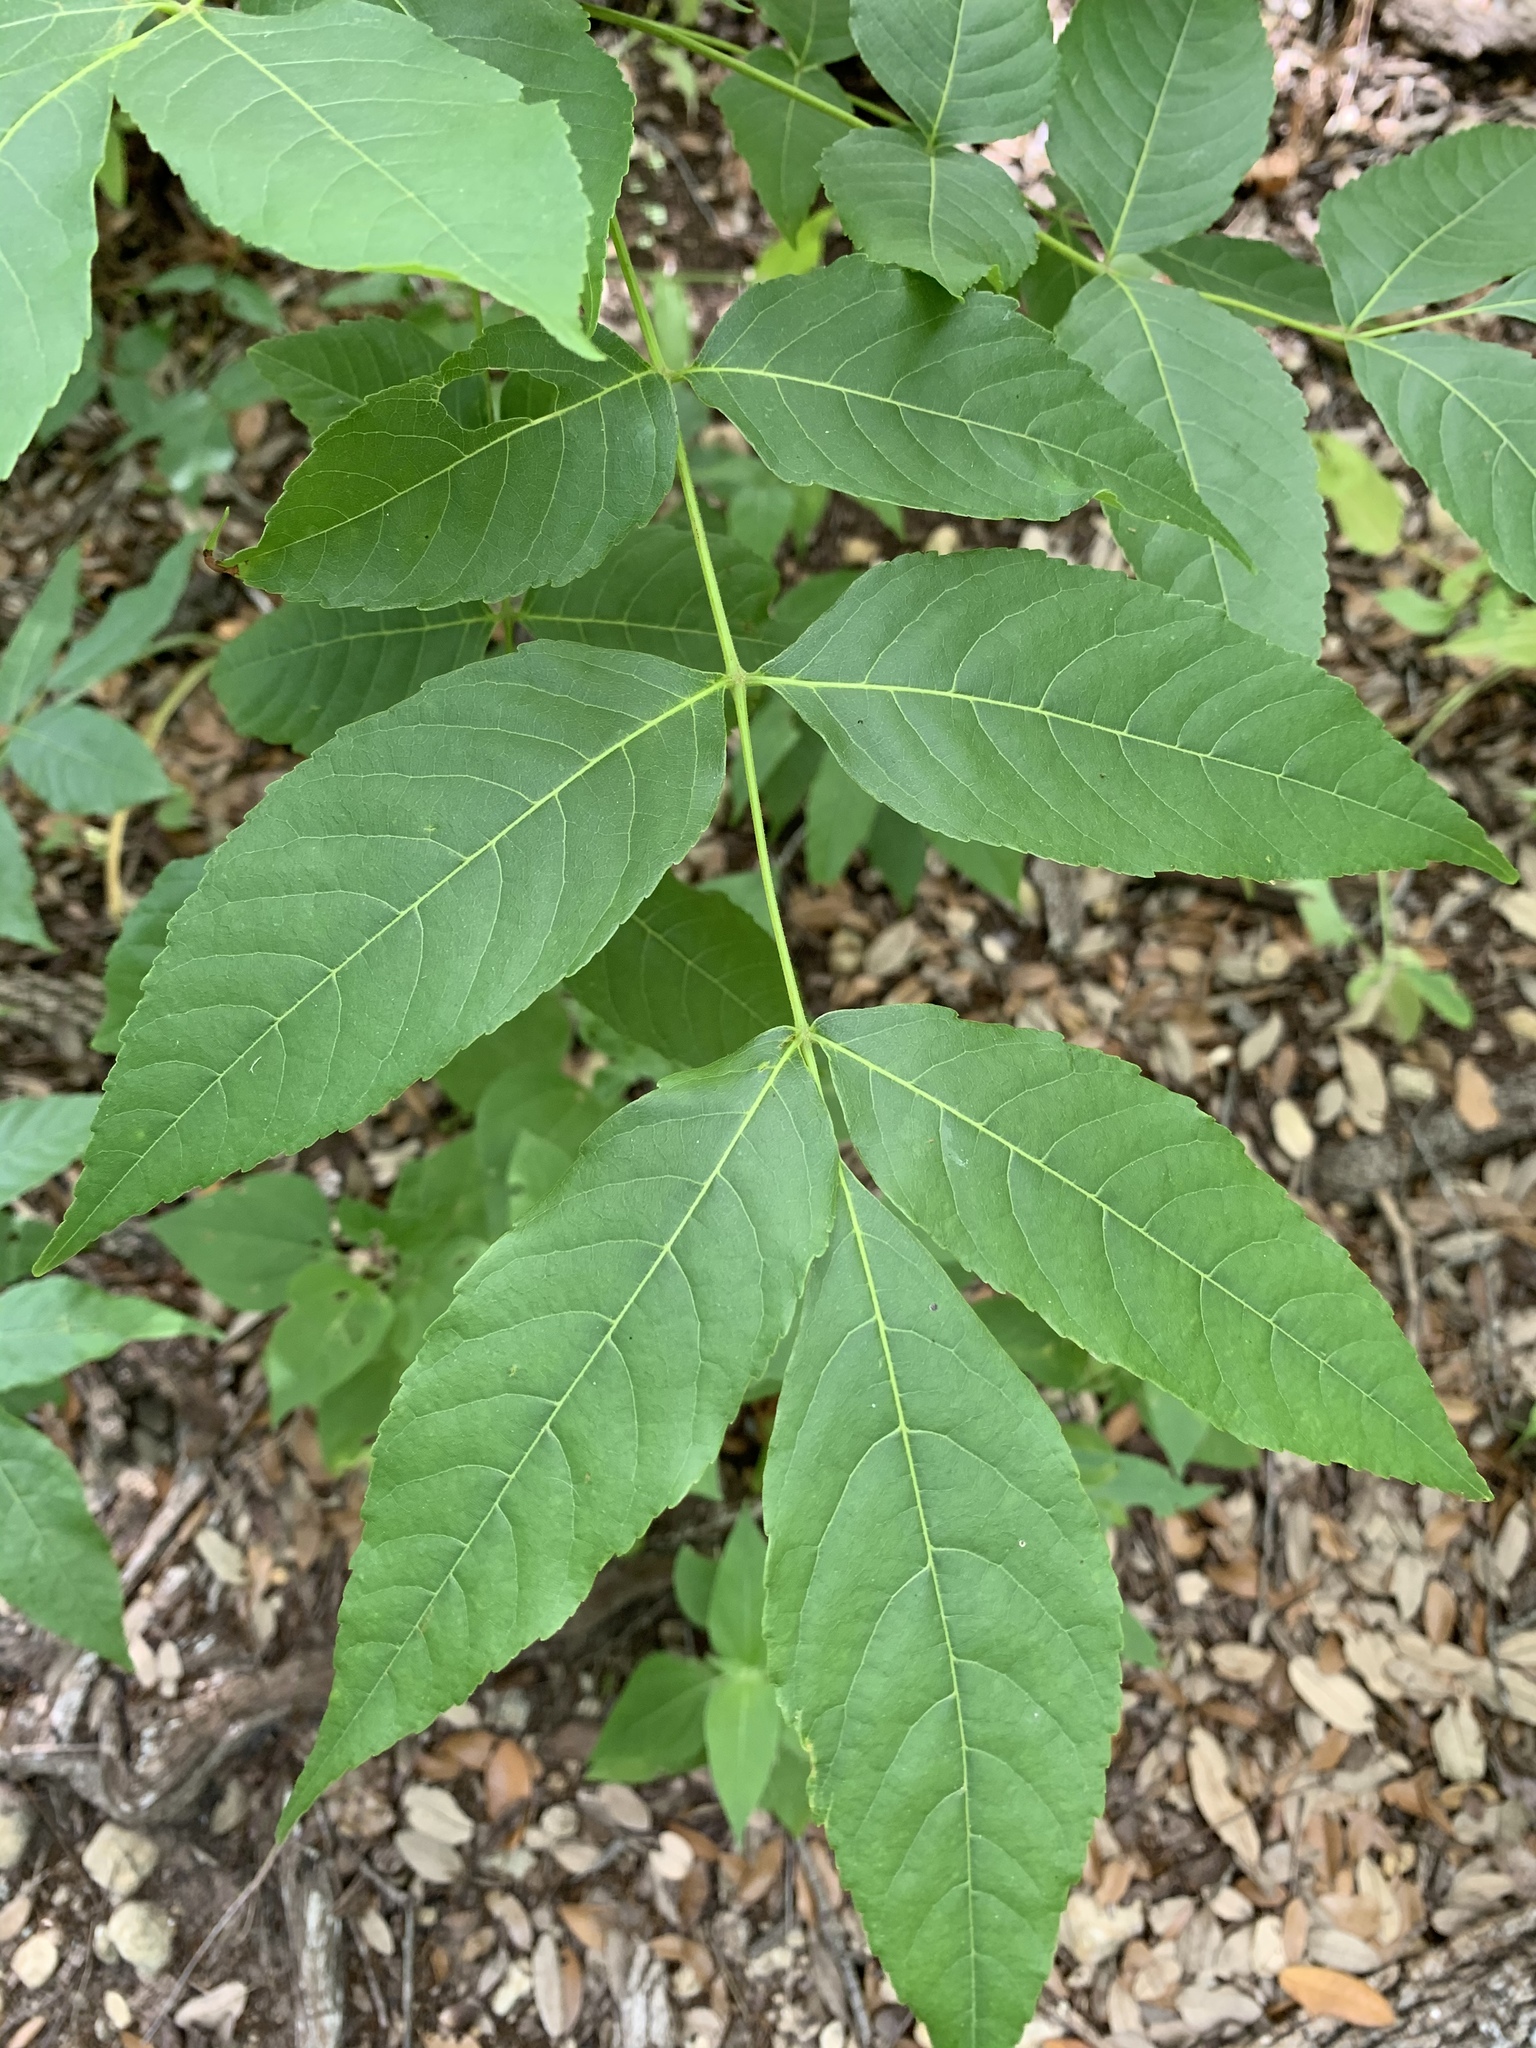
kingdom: Plantae
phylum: Tracheophyta
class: Magnoliopsida
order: Sapindales
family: Sapindaceae
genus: Ungnadia
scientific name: Ungnadia speciosa
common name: Texas-buckeye
